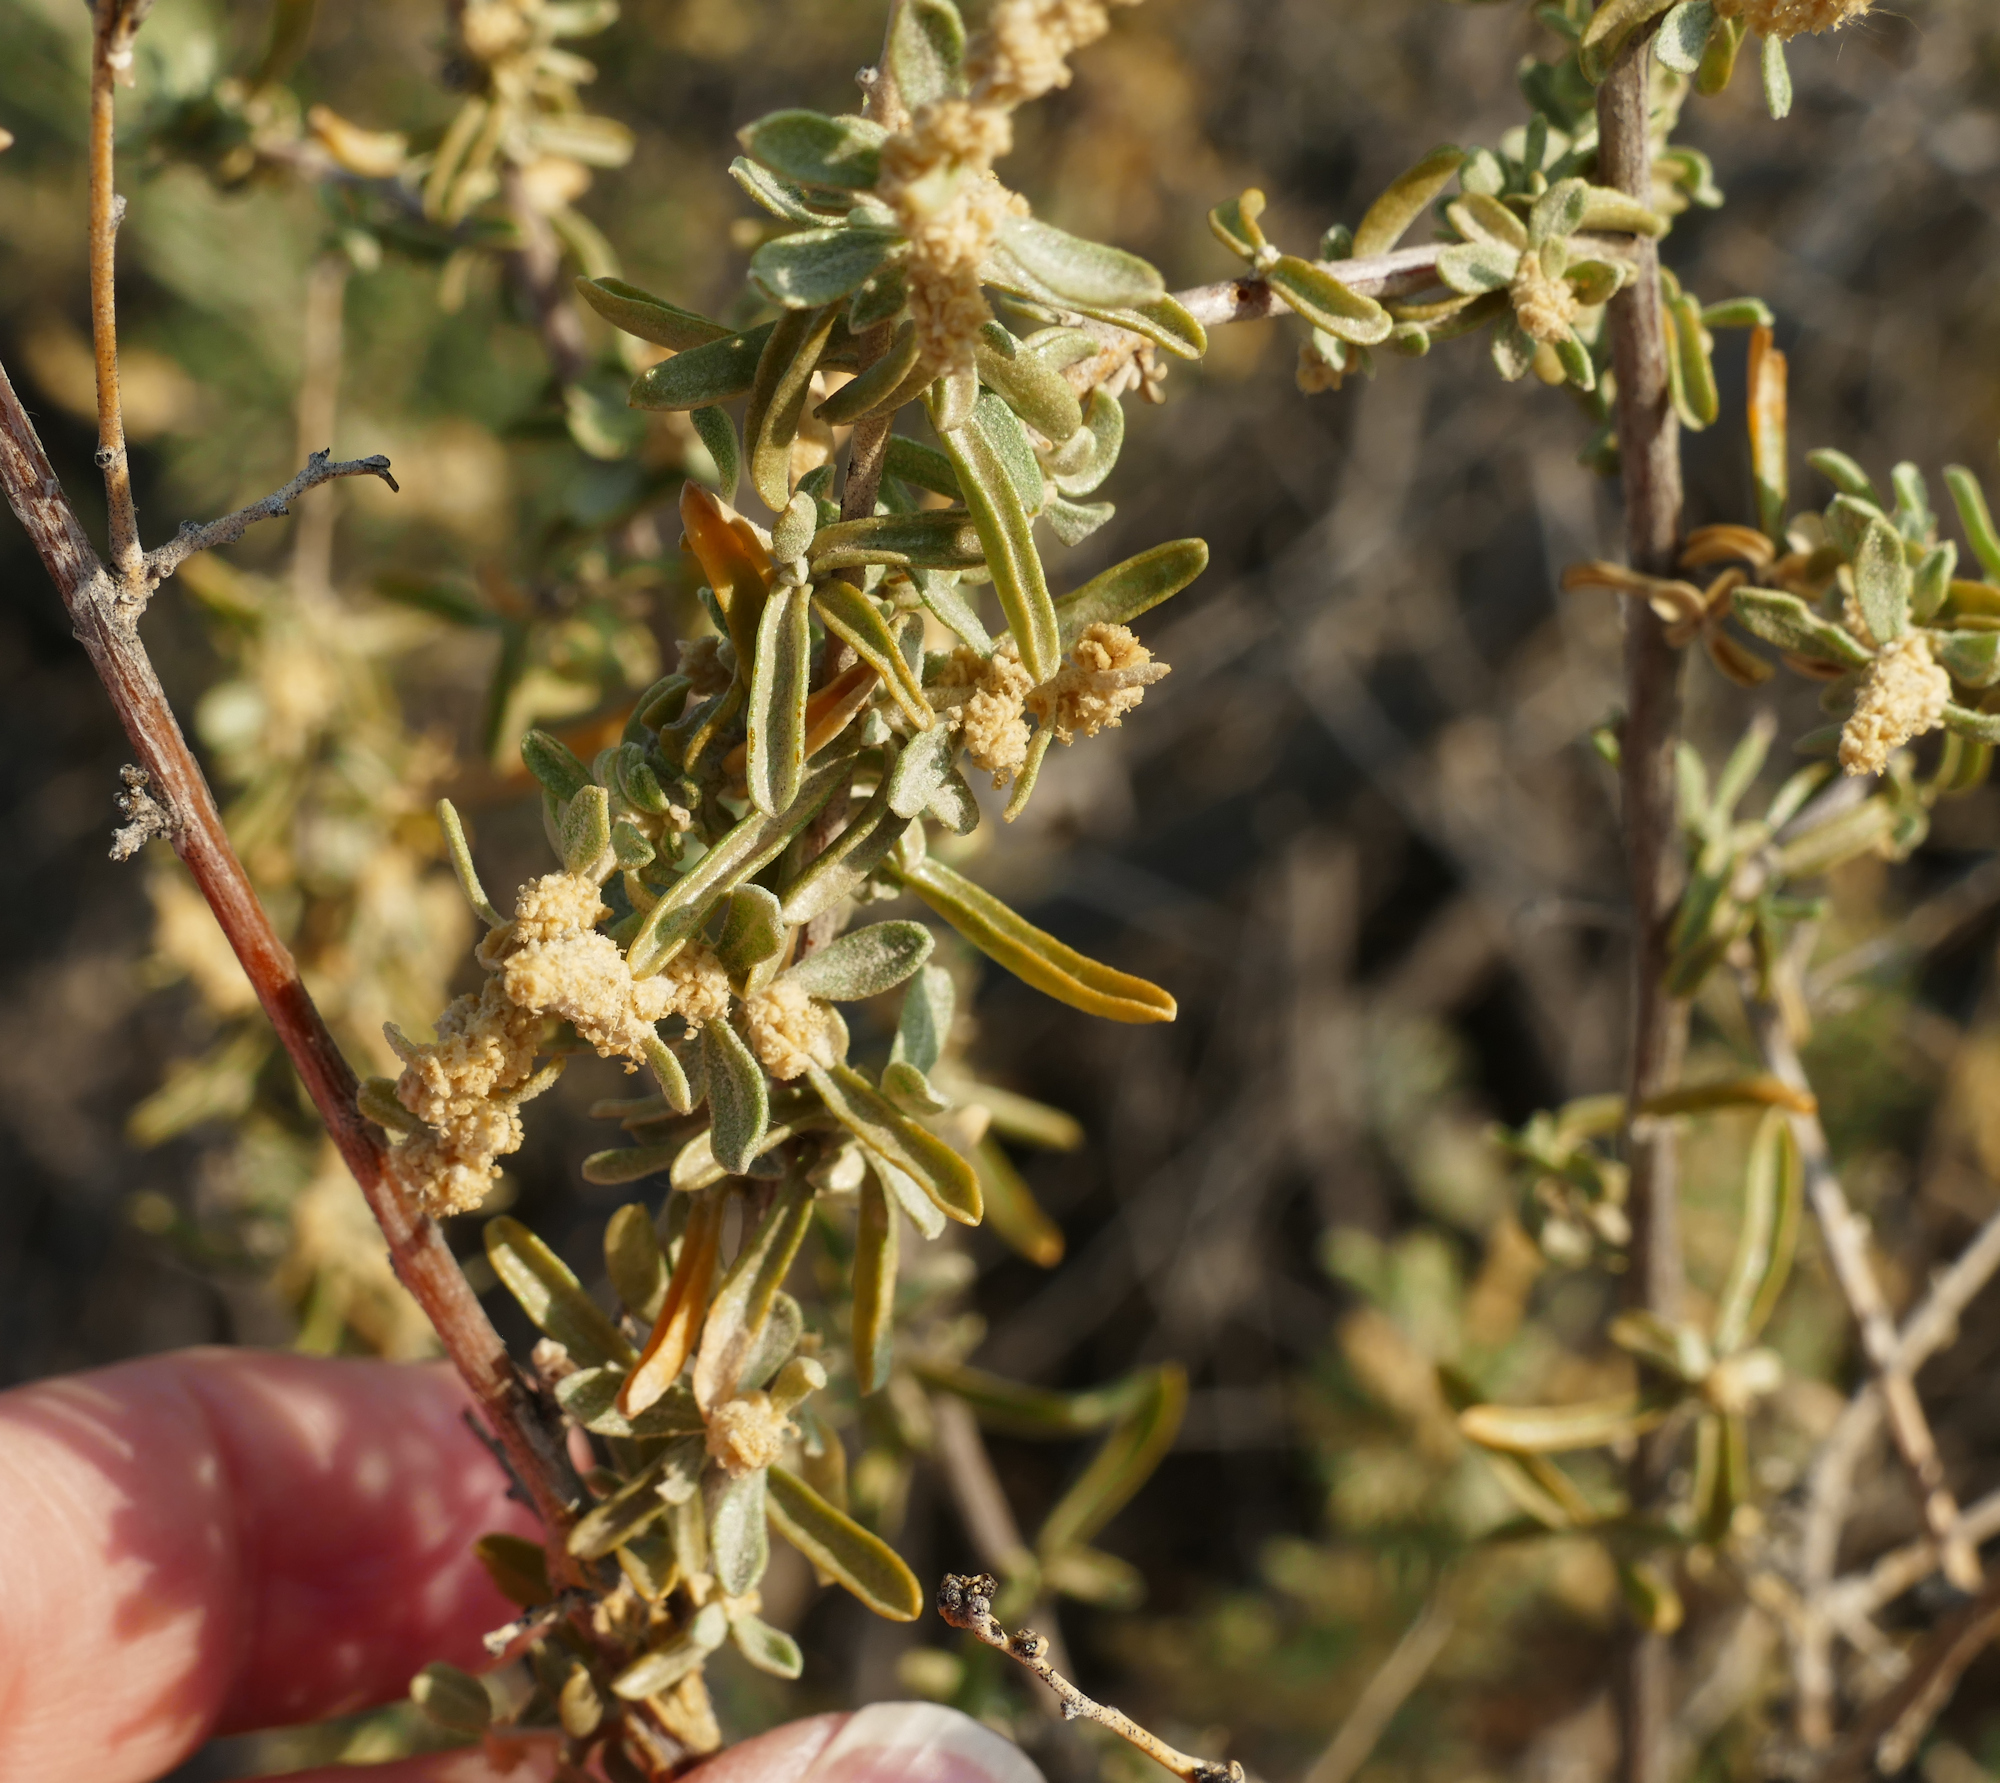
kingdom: Plantae
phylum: Tracheophyta
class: Magnoliopsida
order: Caryophyllales
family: Amaranthaceae
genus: Atriplex
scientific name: Atriplex canescens
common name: Four-wing saltbush
